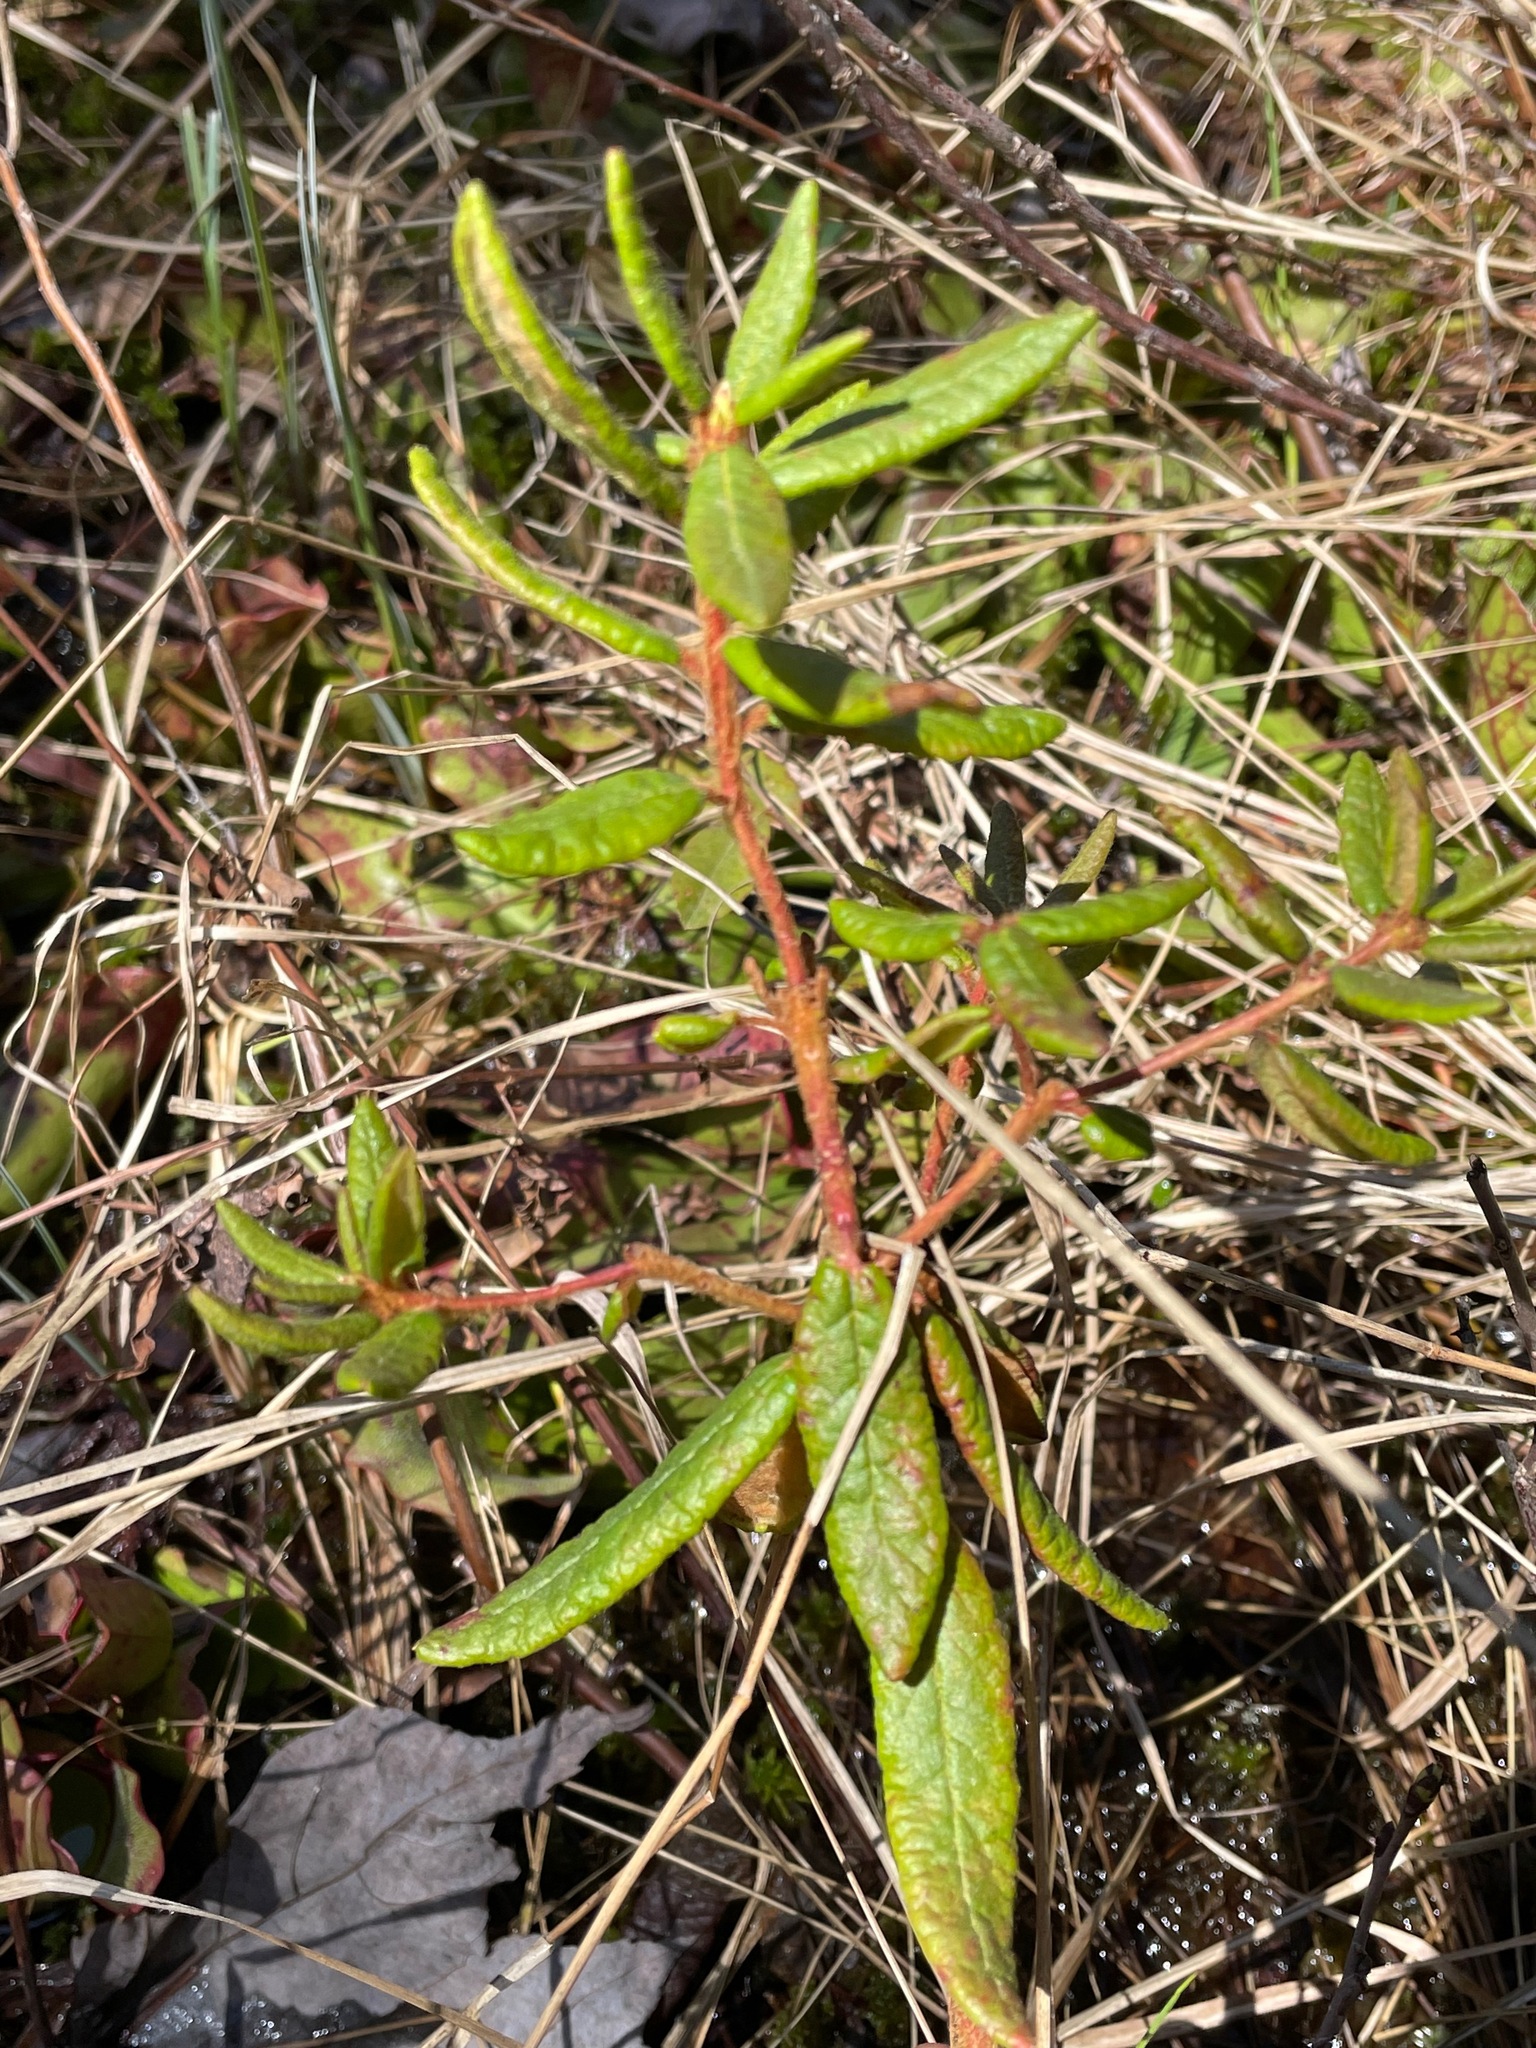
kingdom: Plantae
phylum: Tracheophyta
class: Magnoliopsida
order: Ericales
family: Ericaceae
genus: Rhododendron
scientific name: Rhododendron groenlandicum
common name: Bog labrador tea
